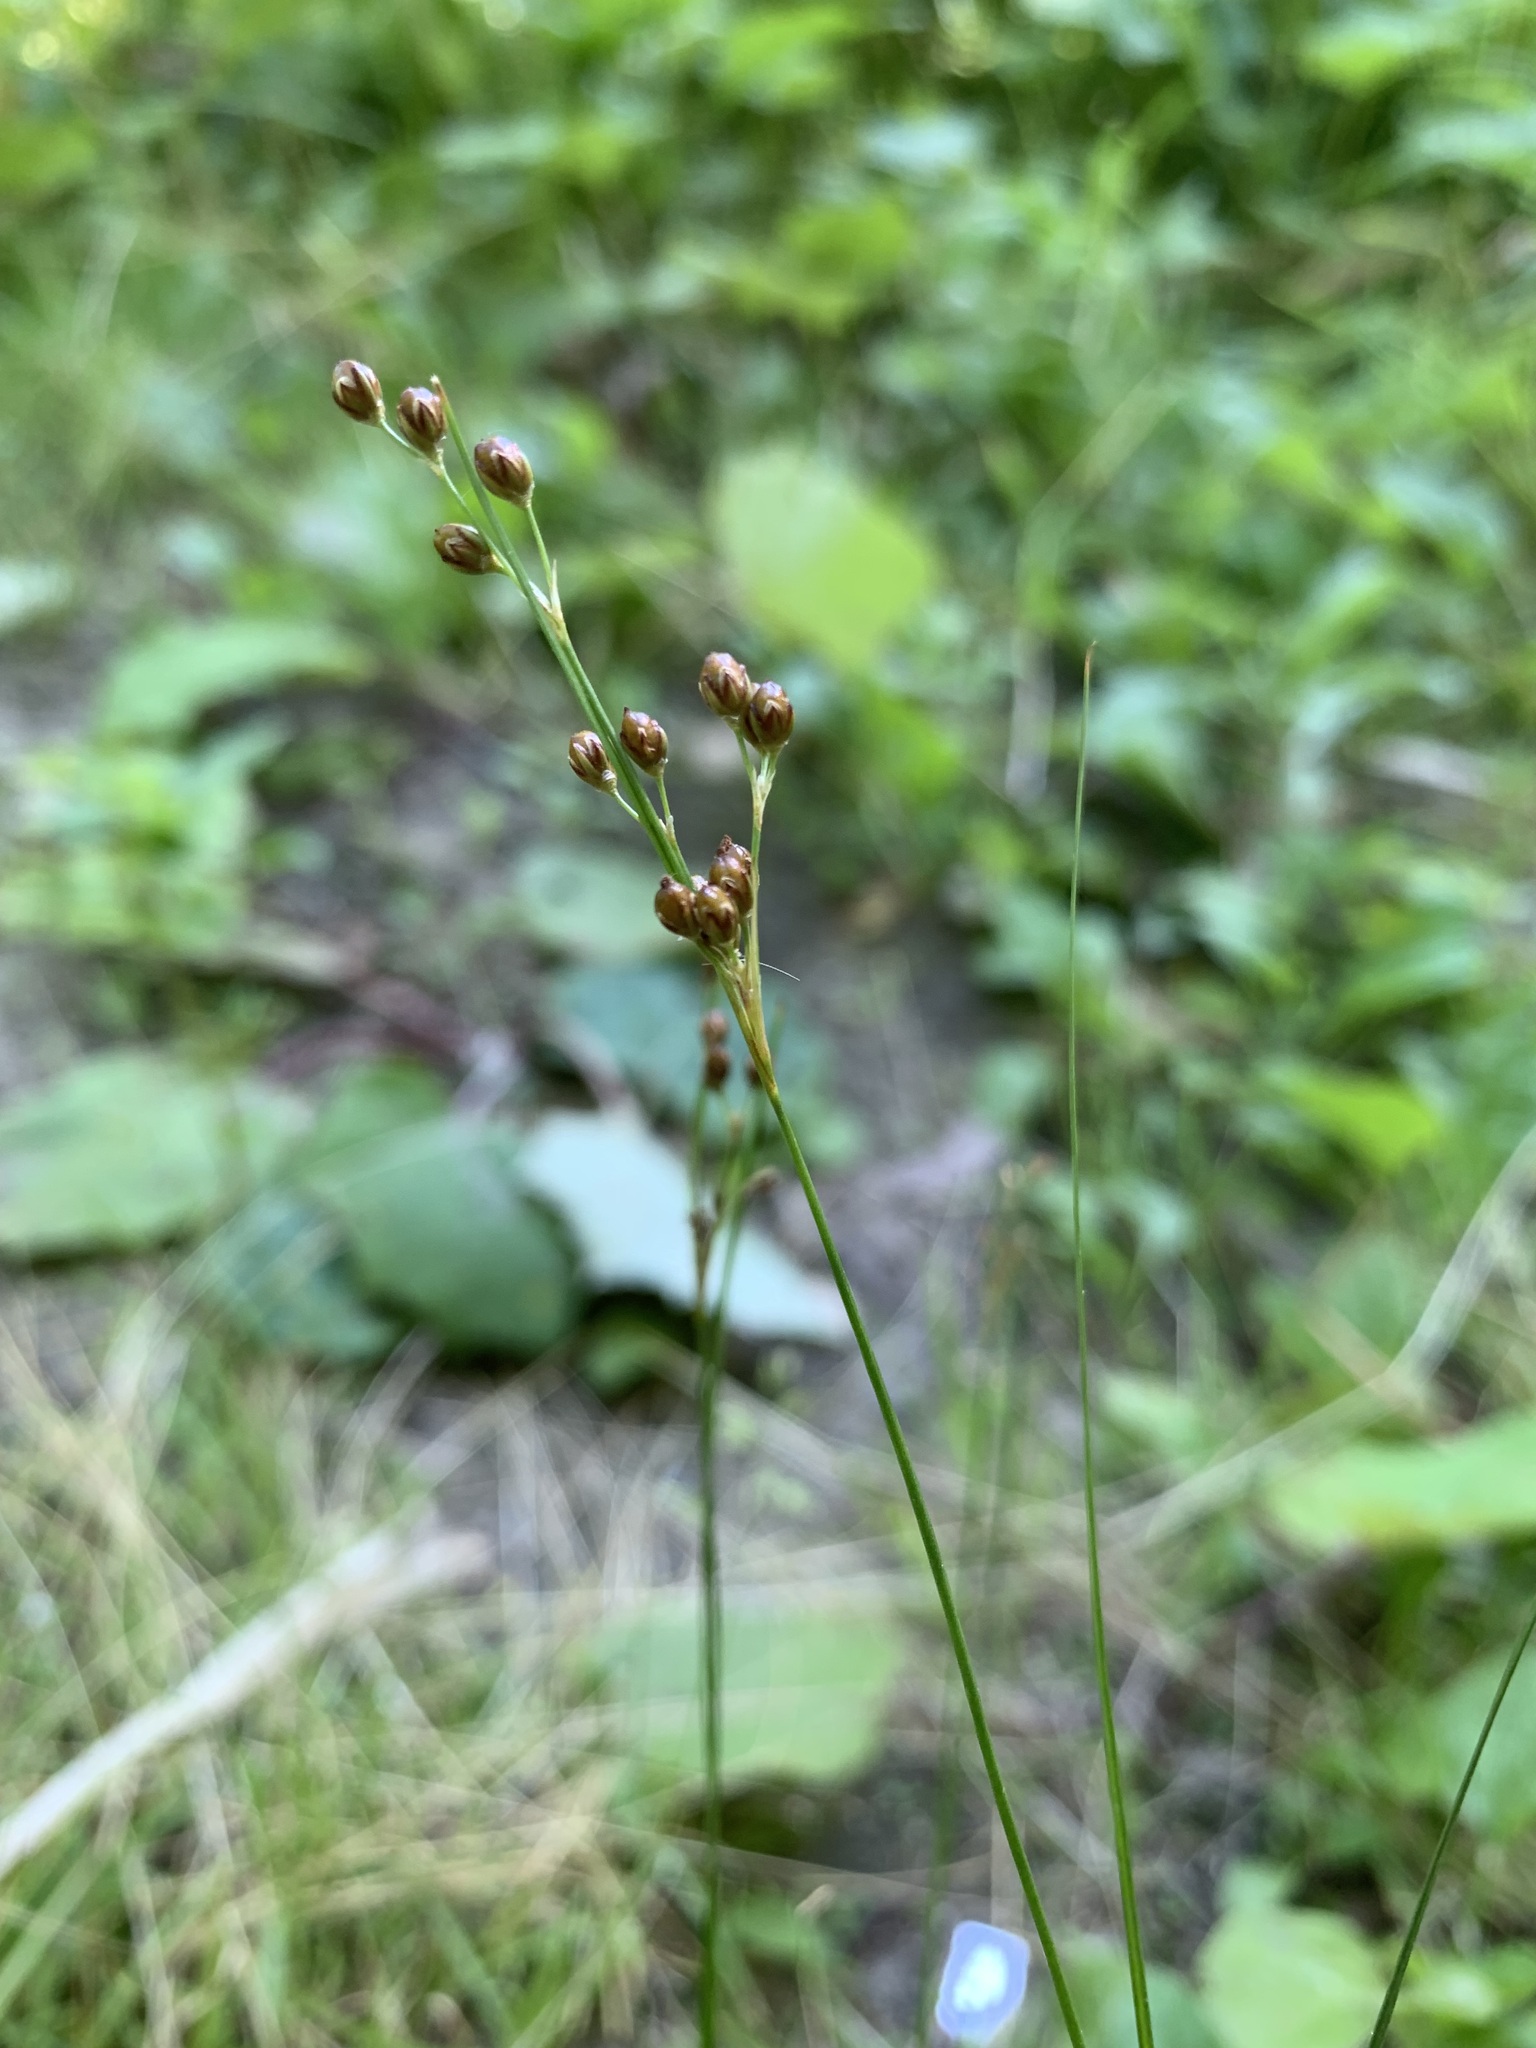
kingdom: Plantae
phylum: Tracheophyta
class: Liliopsida
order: Poales
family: Juncaceae
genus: Juncus
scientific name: Juncus compressus
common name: Round-fruited rush
